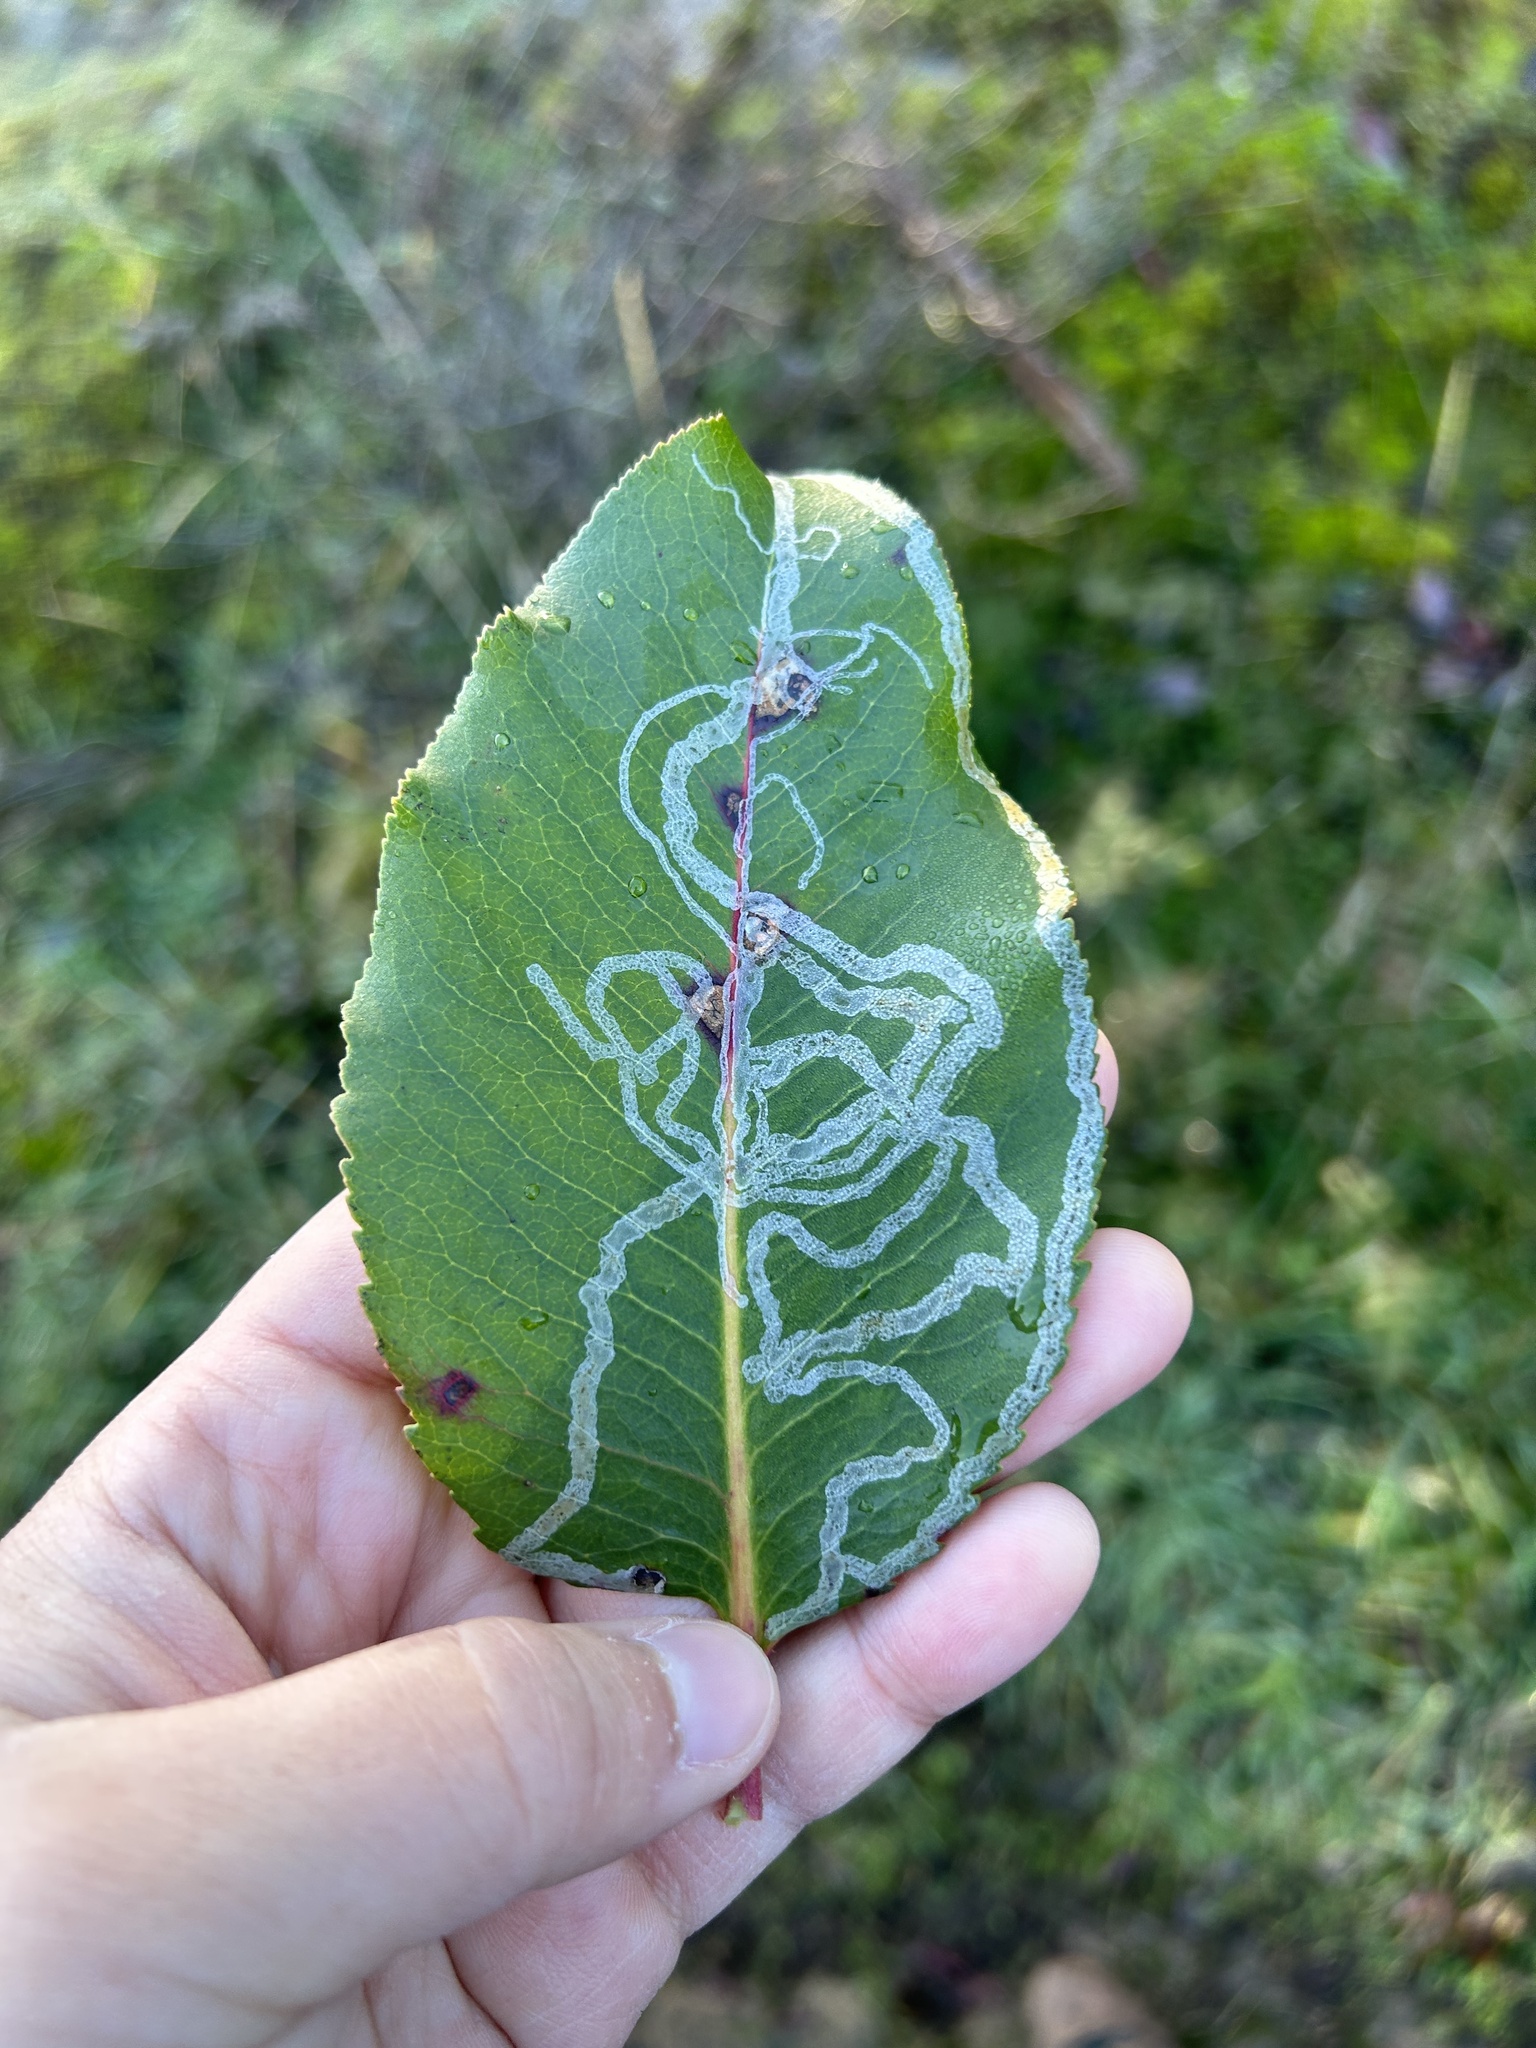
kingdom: Animalia
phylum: Arthropoda
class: Insecta
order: Lepidoptera
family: Gracillariidae
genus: Marmara
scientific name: Marmara arbutiella
